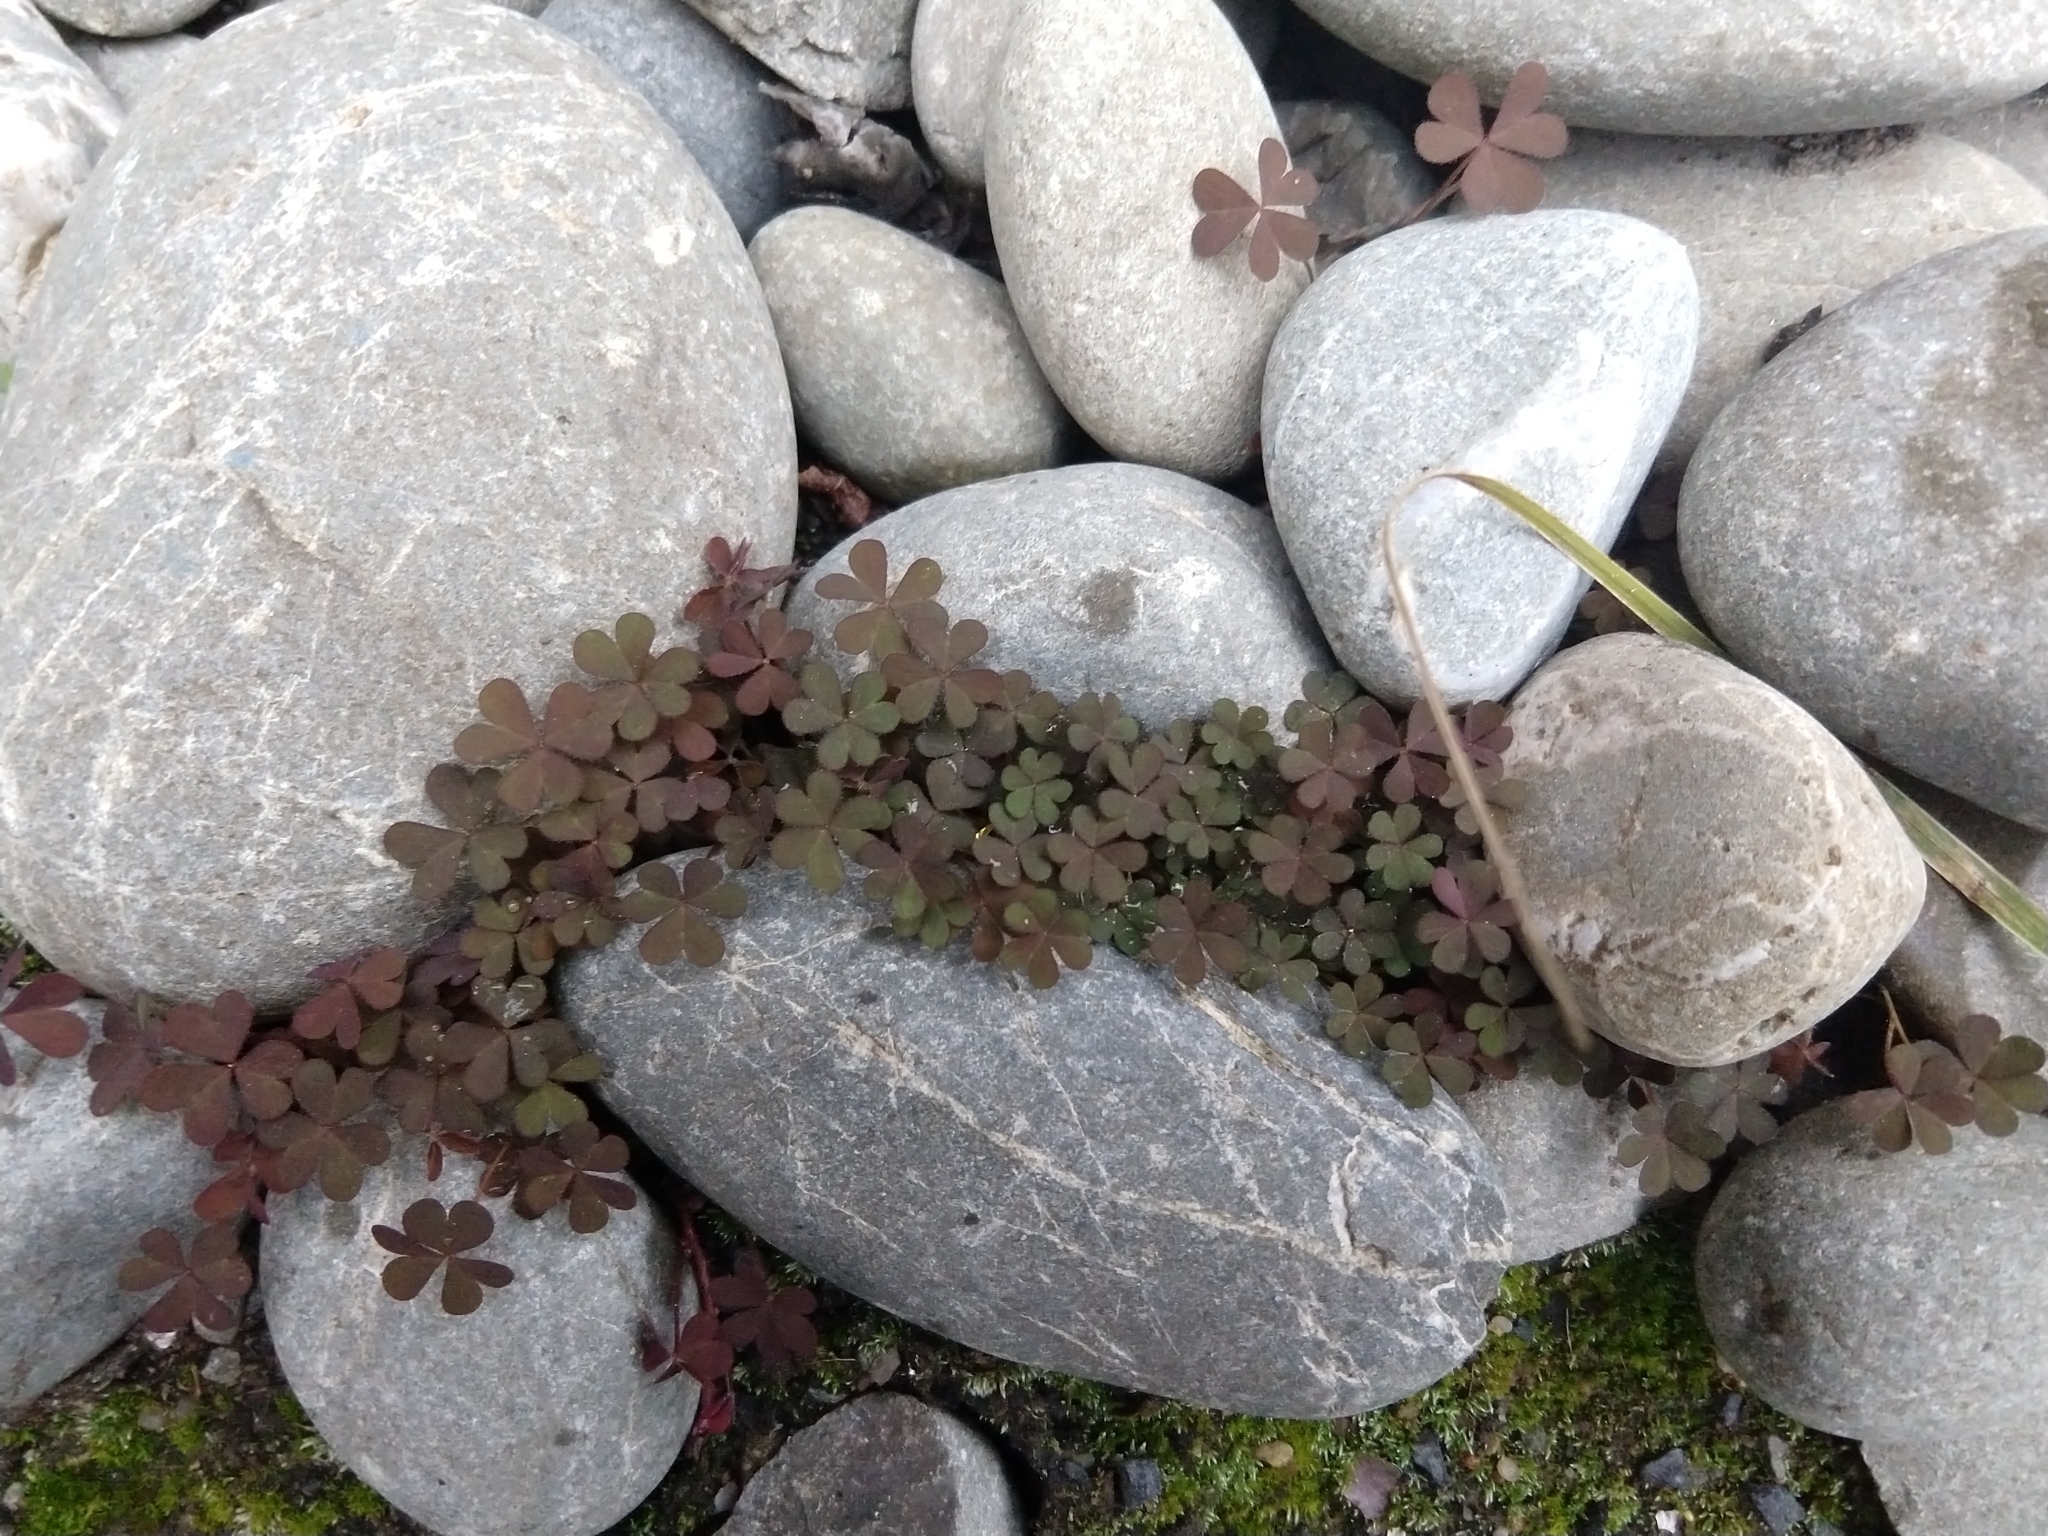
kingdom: Plantae
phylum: Tracheophyta
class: Magnoliopsida
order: Oxalidales
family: Oxalidaceae
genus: Oxalis
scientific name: Oxalis corniculata
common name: Procumbent yellow-sorrel
